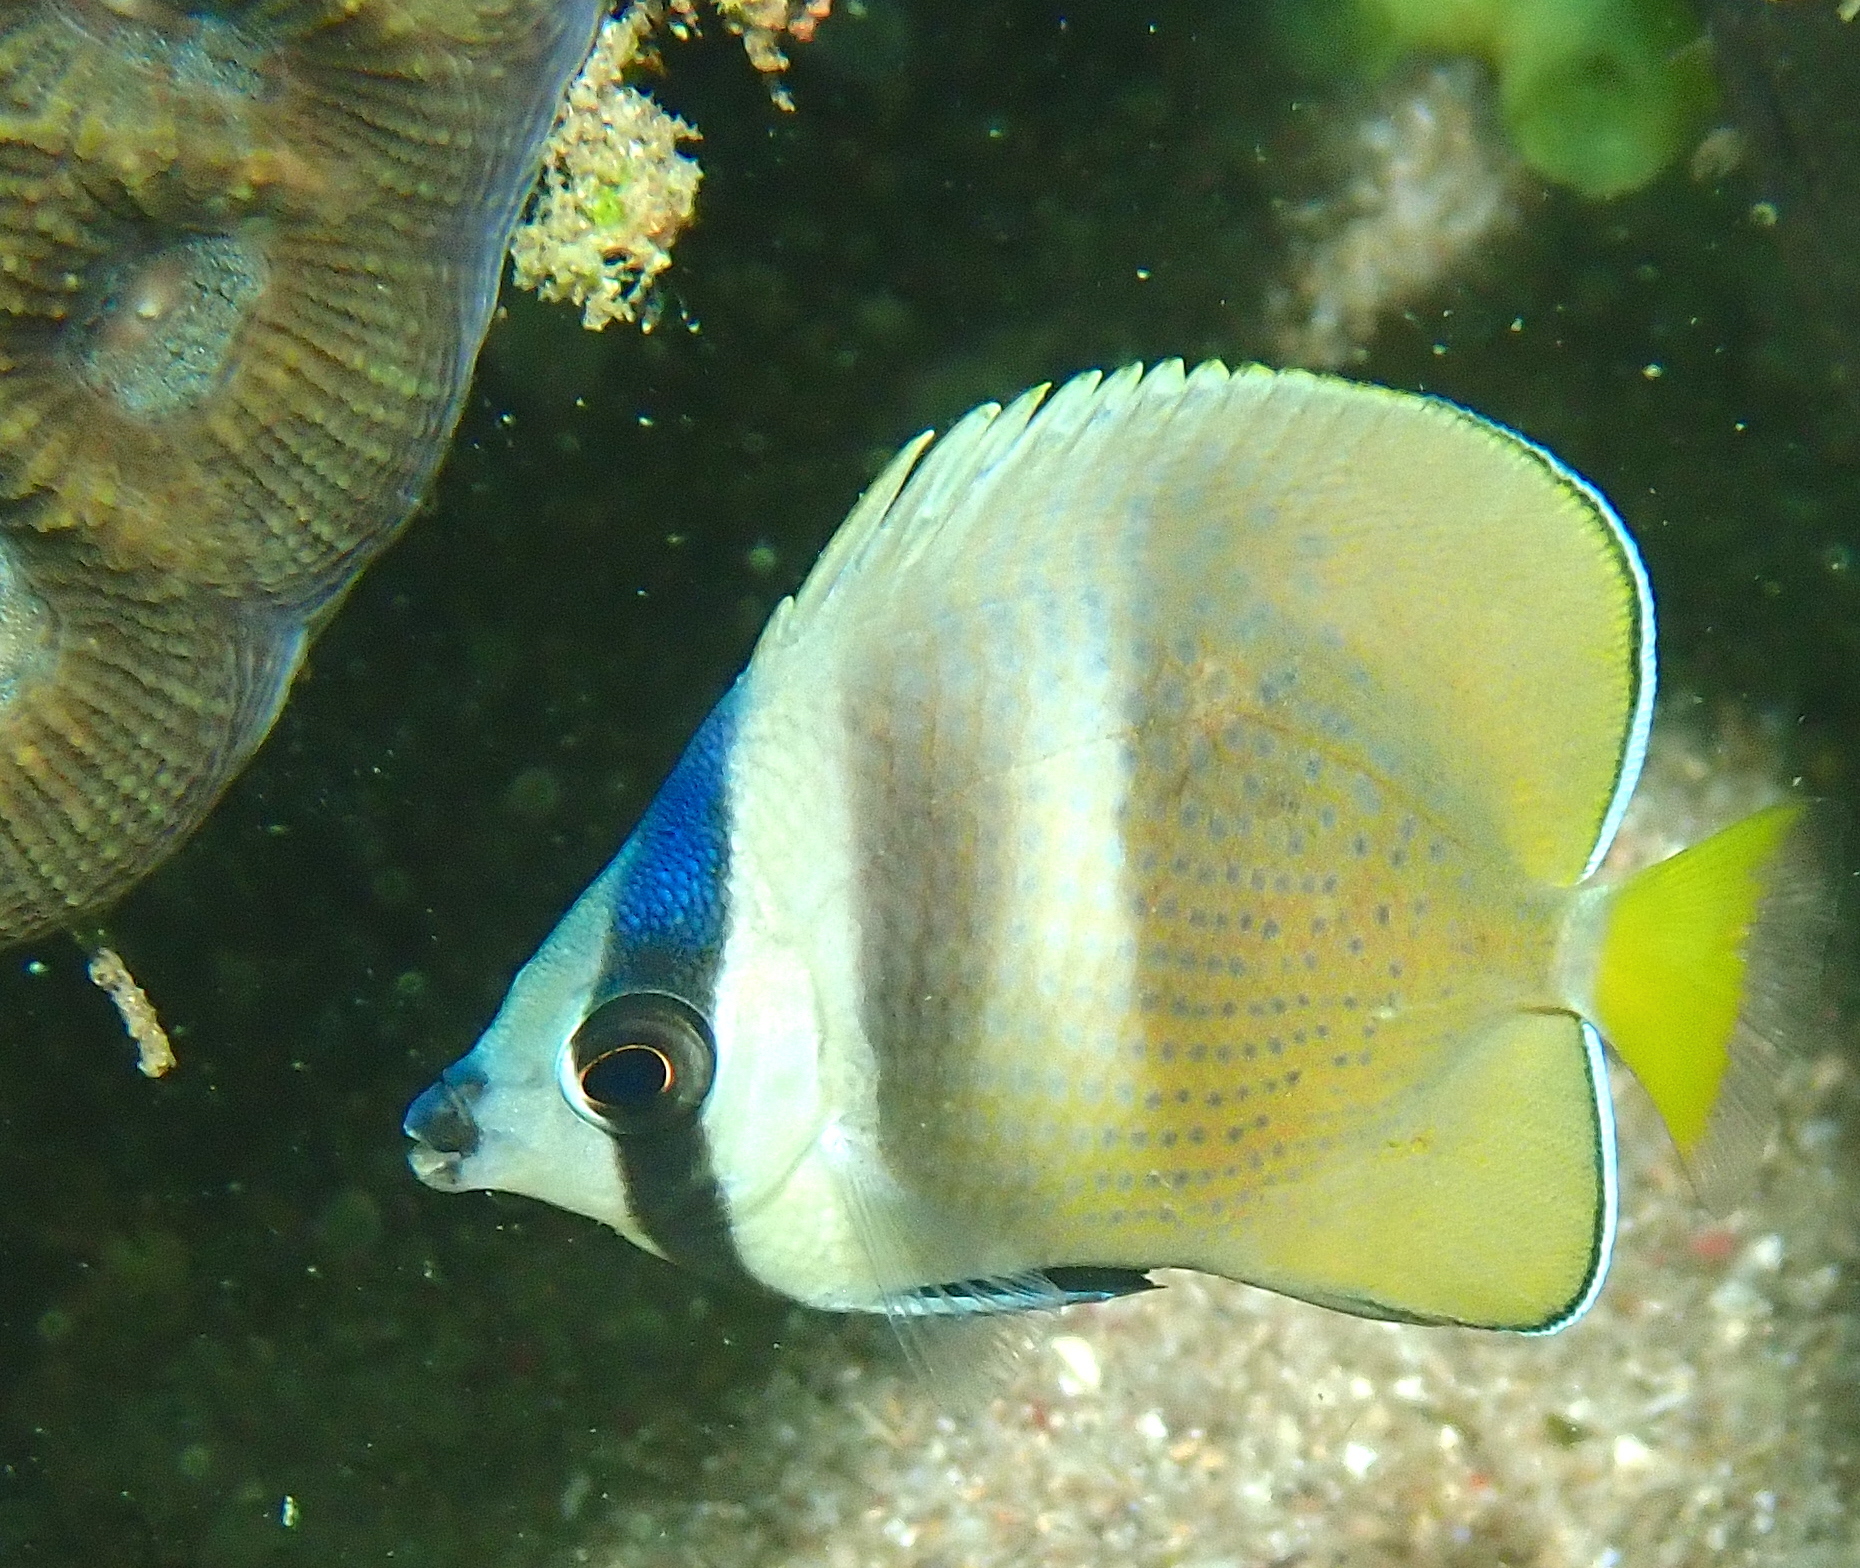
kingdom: Animalia
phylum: Chordata
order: Perciformes
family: Chaetodontidae
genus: Chaetodon
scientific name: Chaetodon kleinii
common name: Klein's butterflyfish
